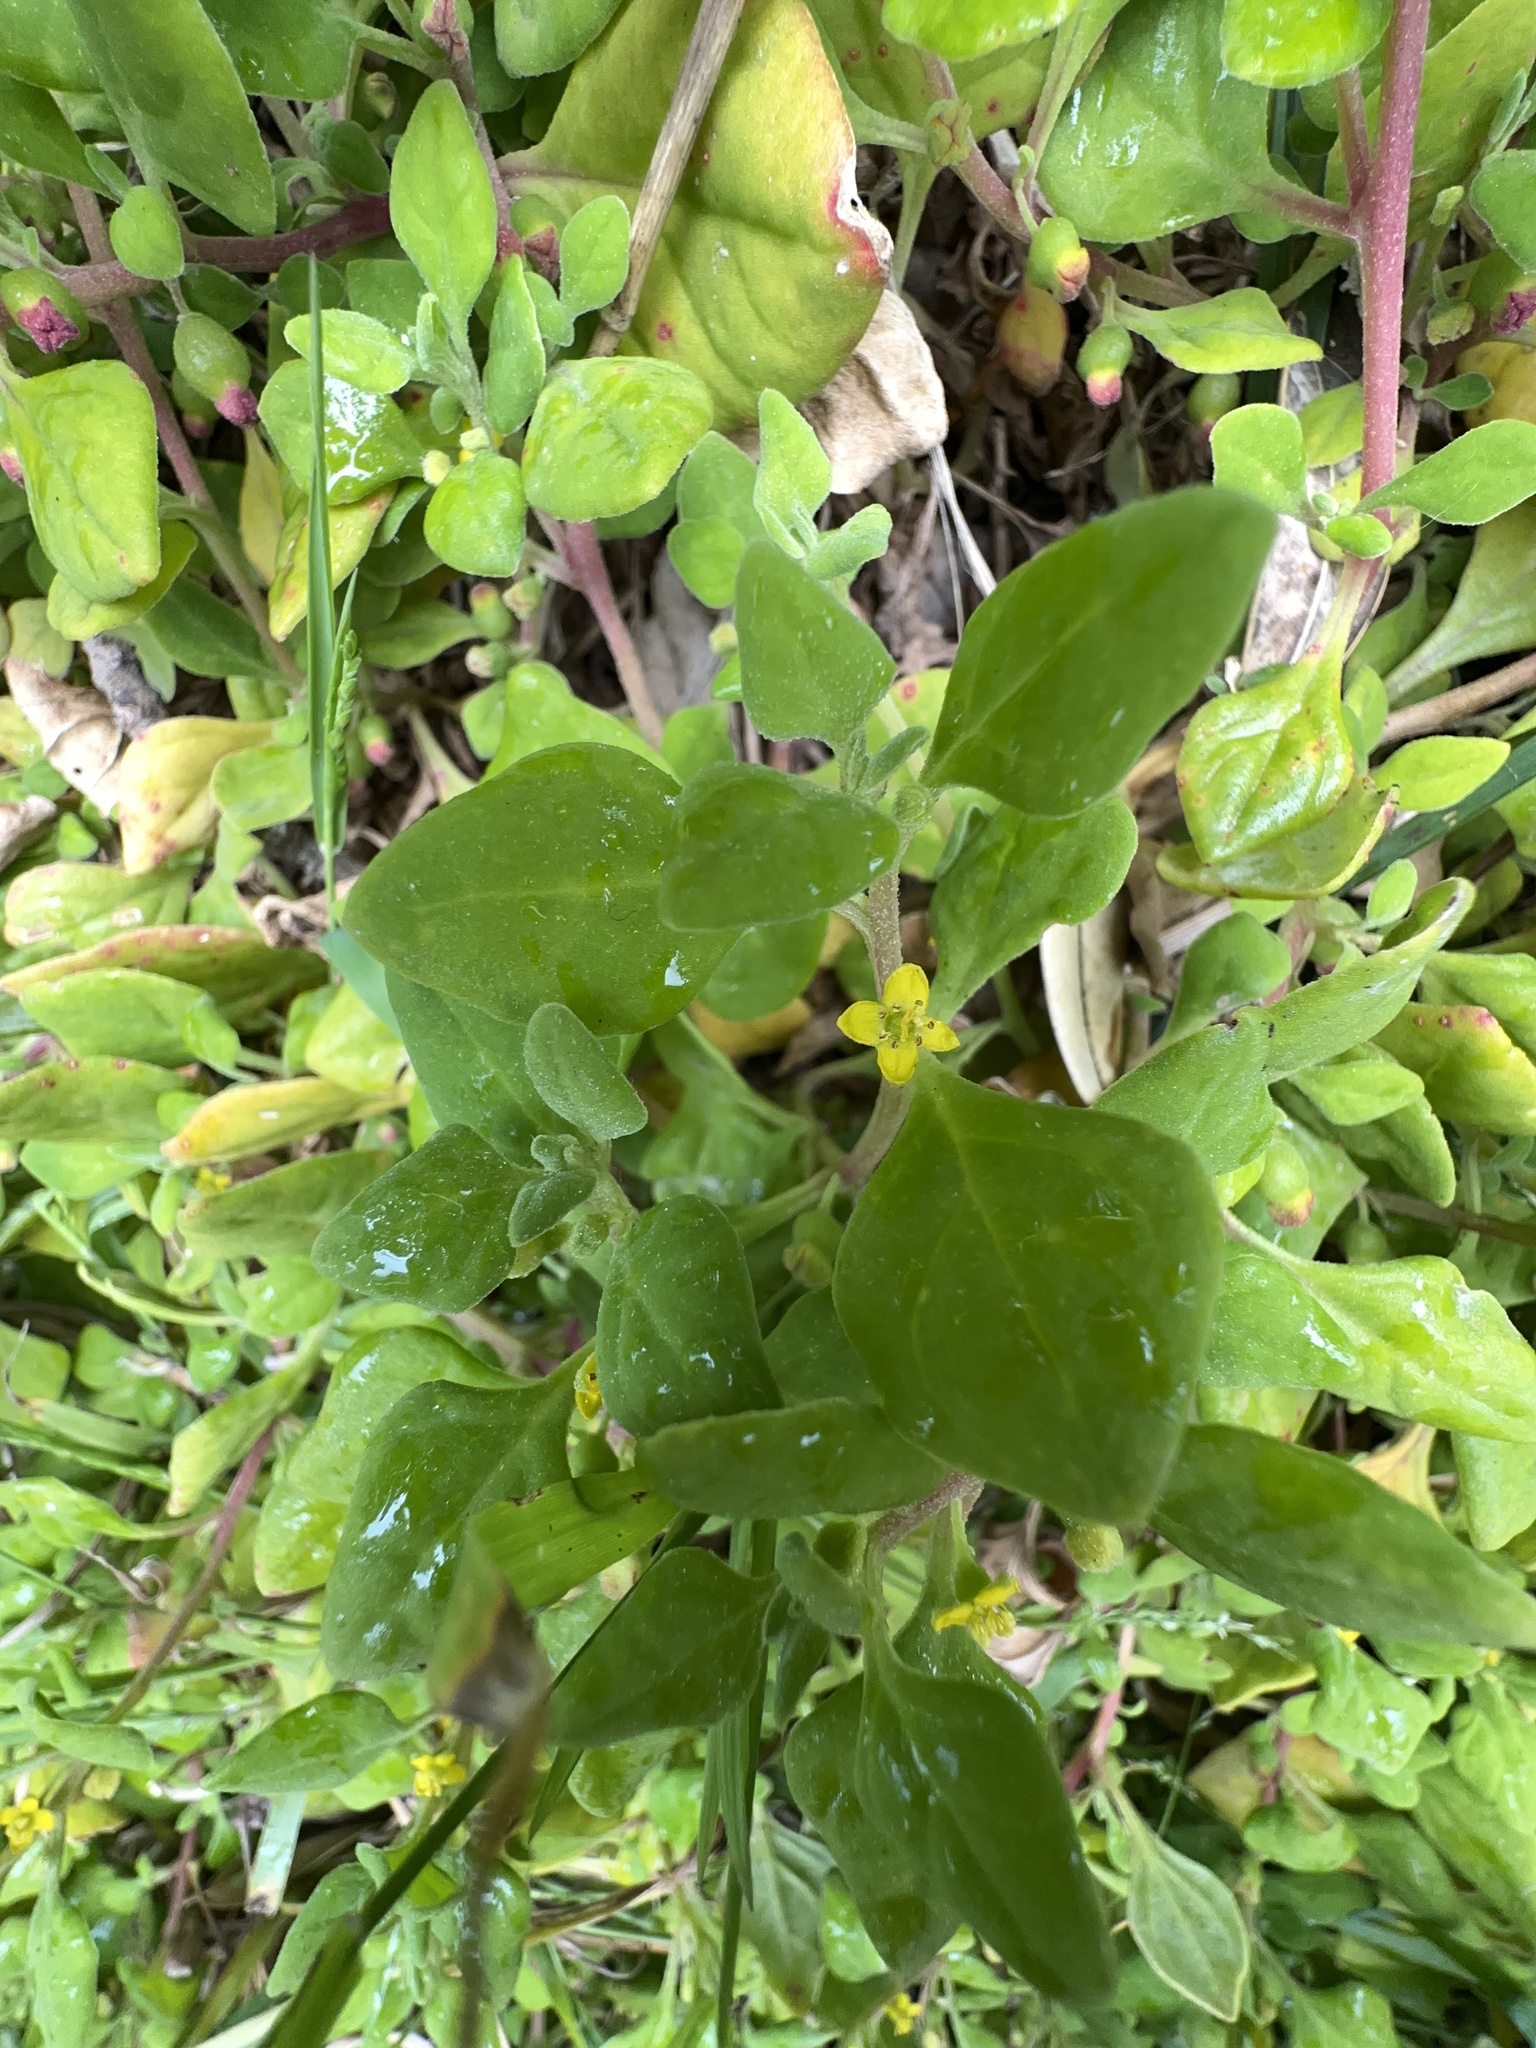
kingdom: Plantae
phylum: Tracheophyta
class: Magnoliopsida
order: Caryophyllales
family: Aizoaceae
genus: Tetragonia
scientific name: Tetragonia implexicoma
